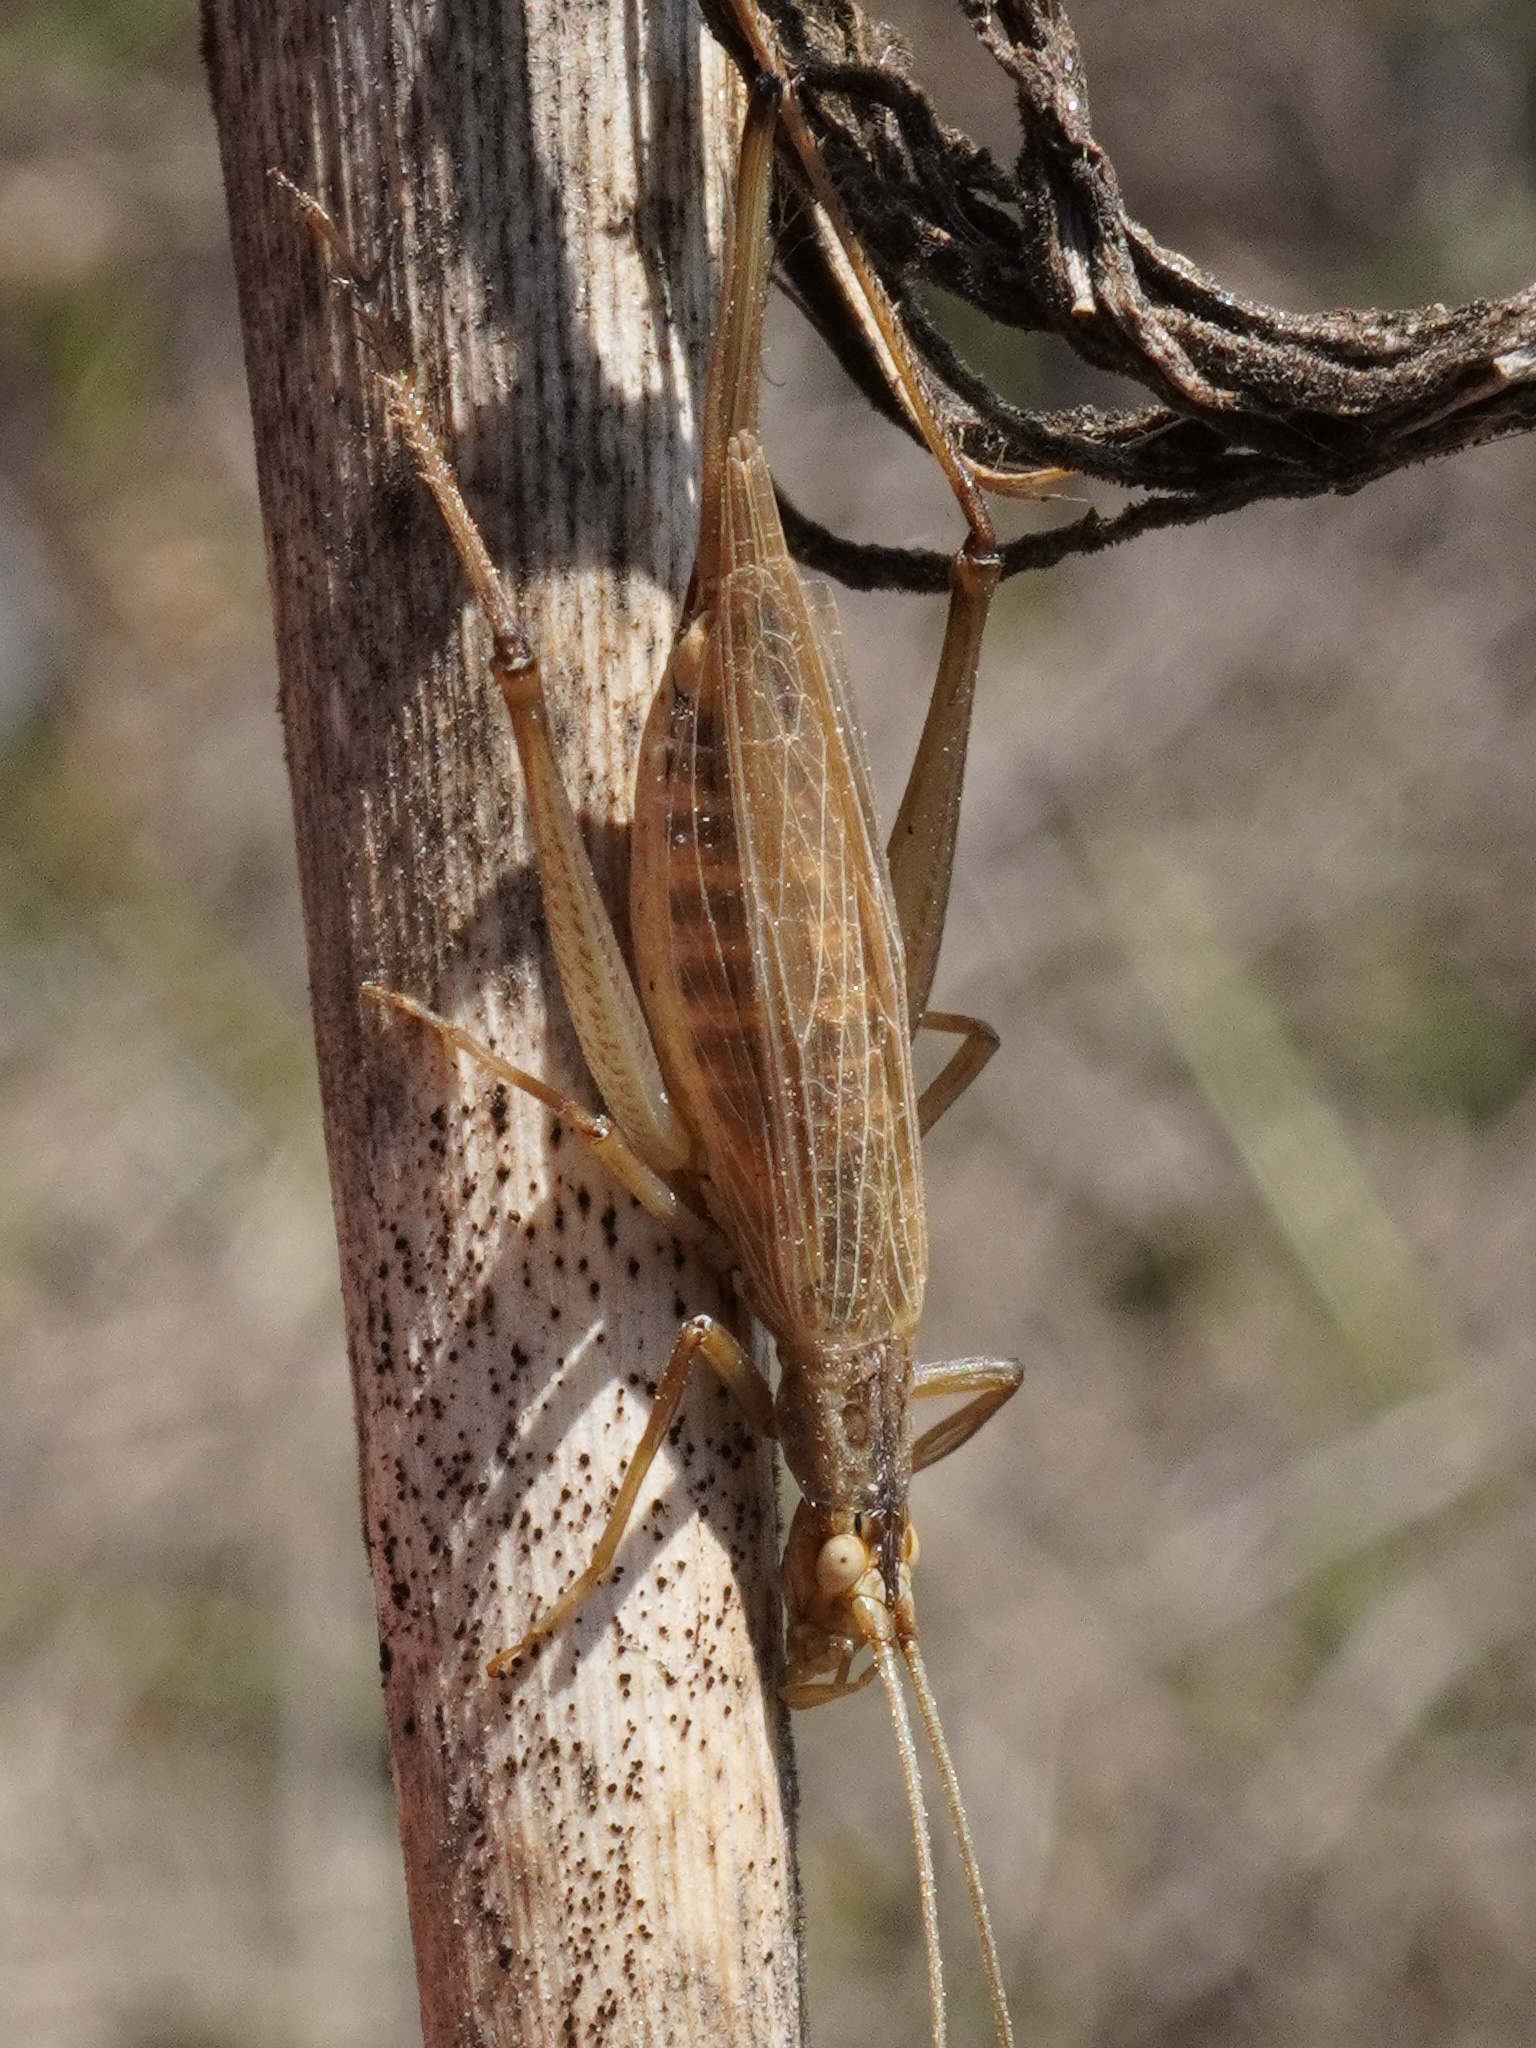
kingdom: Animalia
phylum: Arthropoda
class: Insecta
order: Orthoptera
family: Gryllidae
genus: Oecanthus
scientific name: Oecanthus pellucens
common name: Tree-cricket
